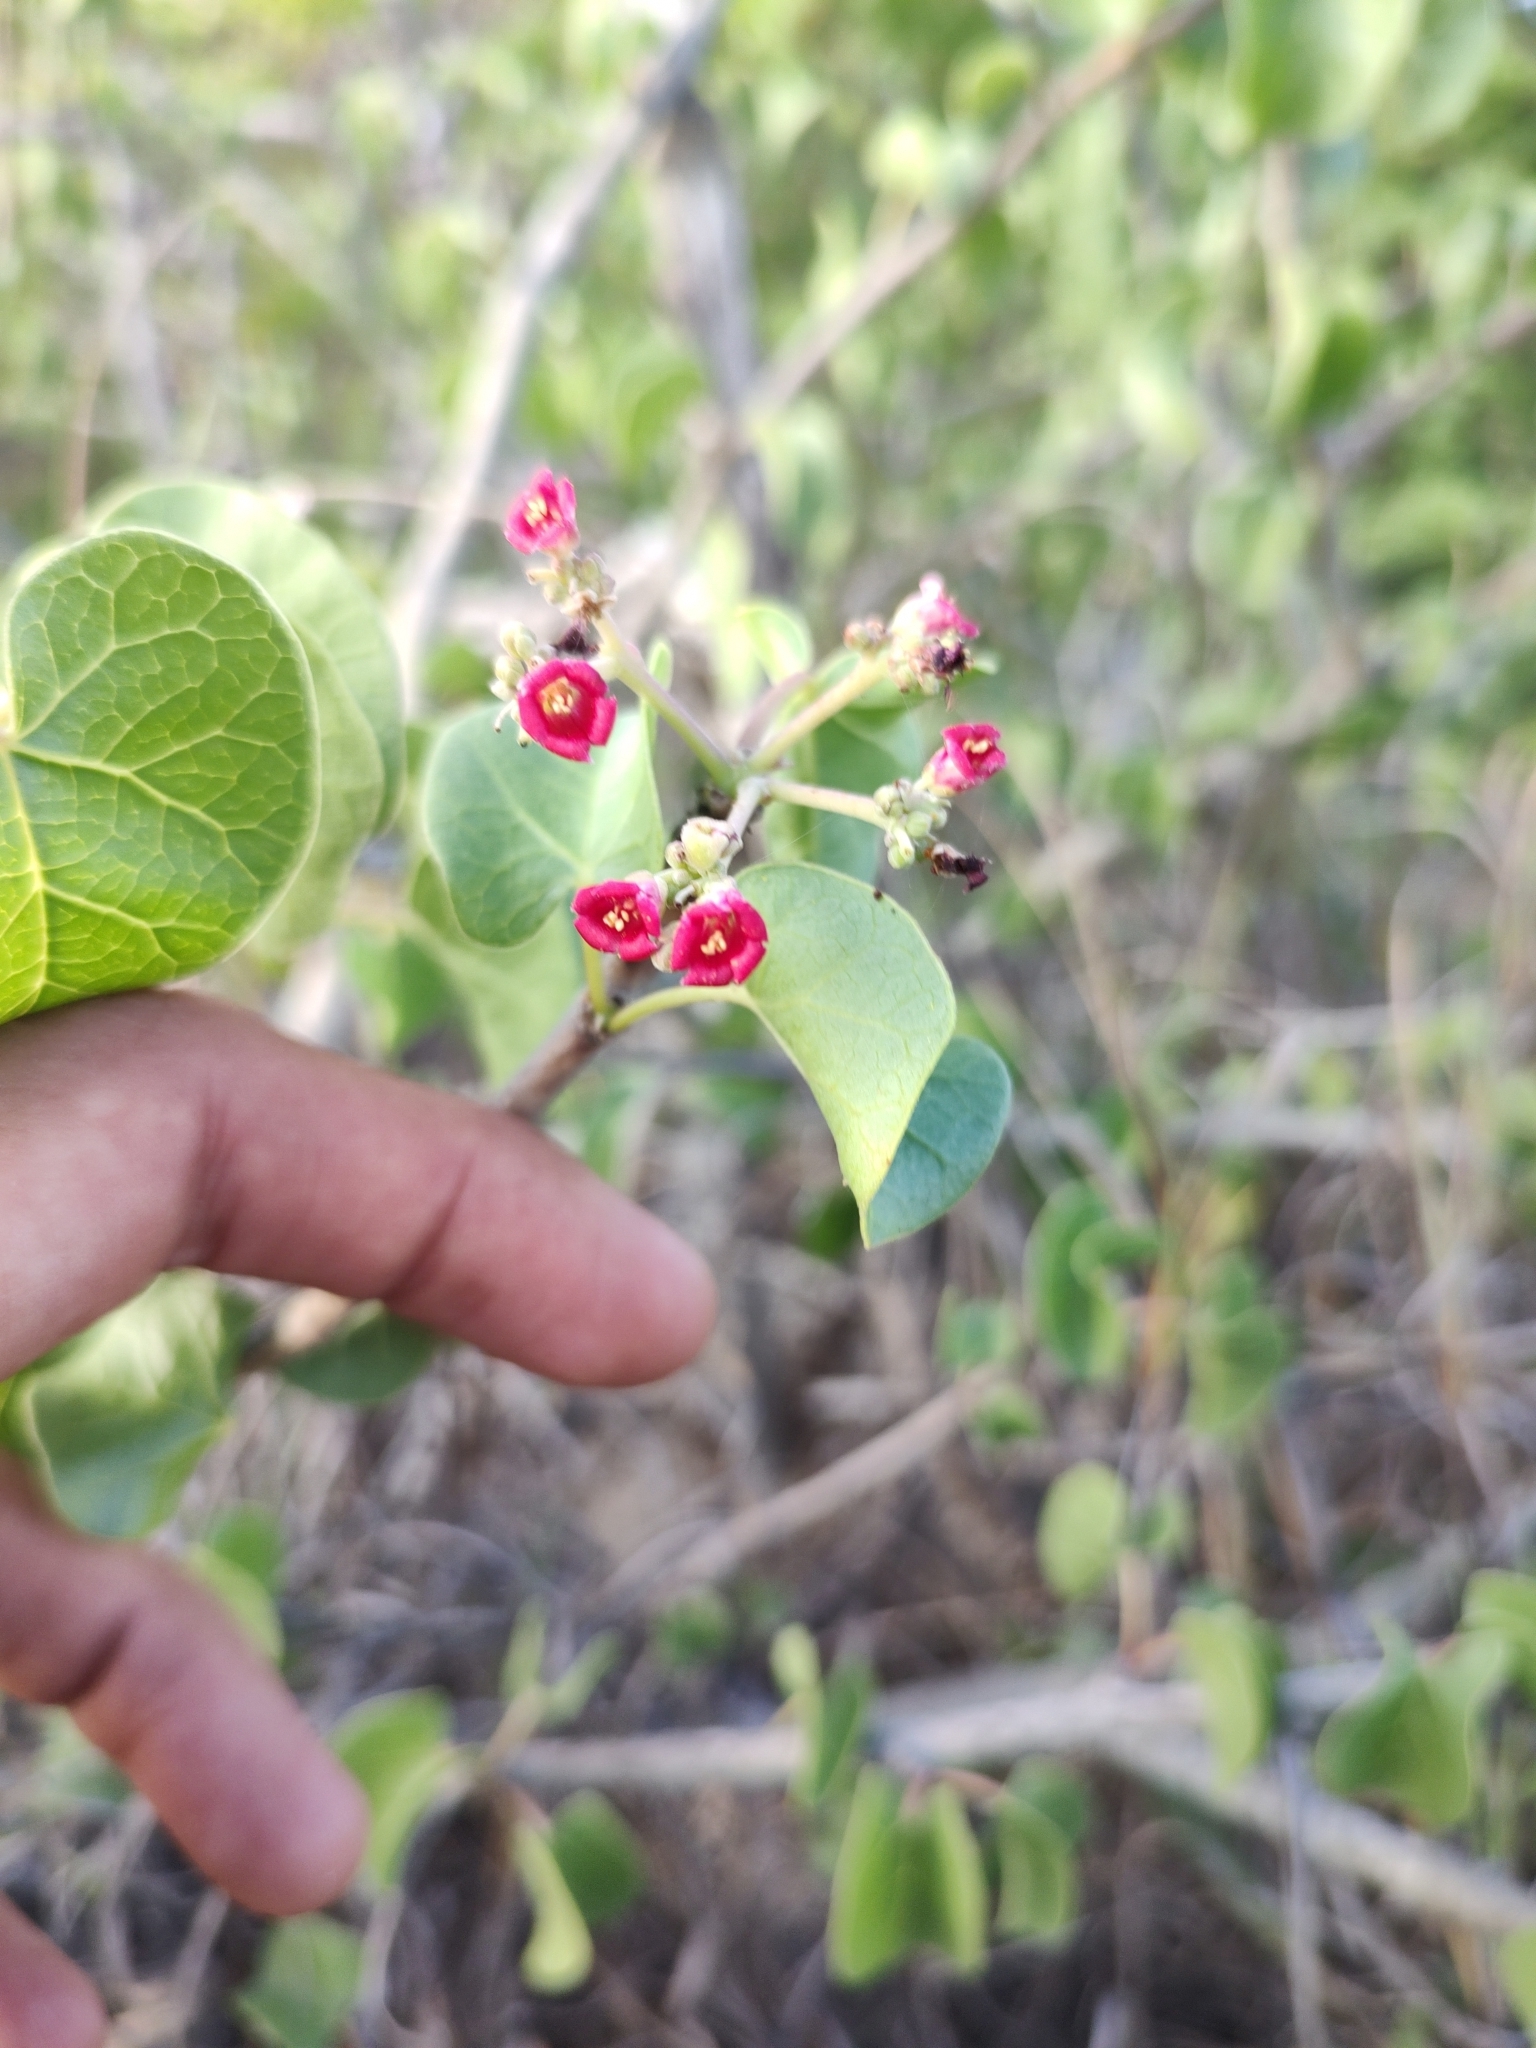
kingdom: Plantae
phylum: Tracheophyta
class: Magnoliopsida
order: Malpighiales
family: Euphorbiaceae
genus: Jatropha
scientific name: Jatropha cinerea
